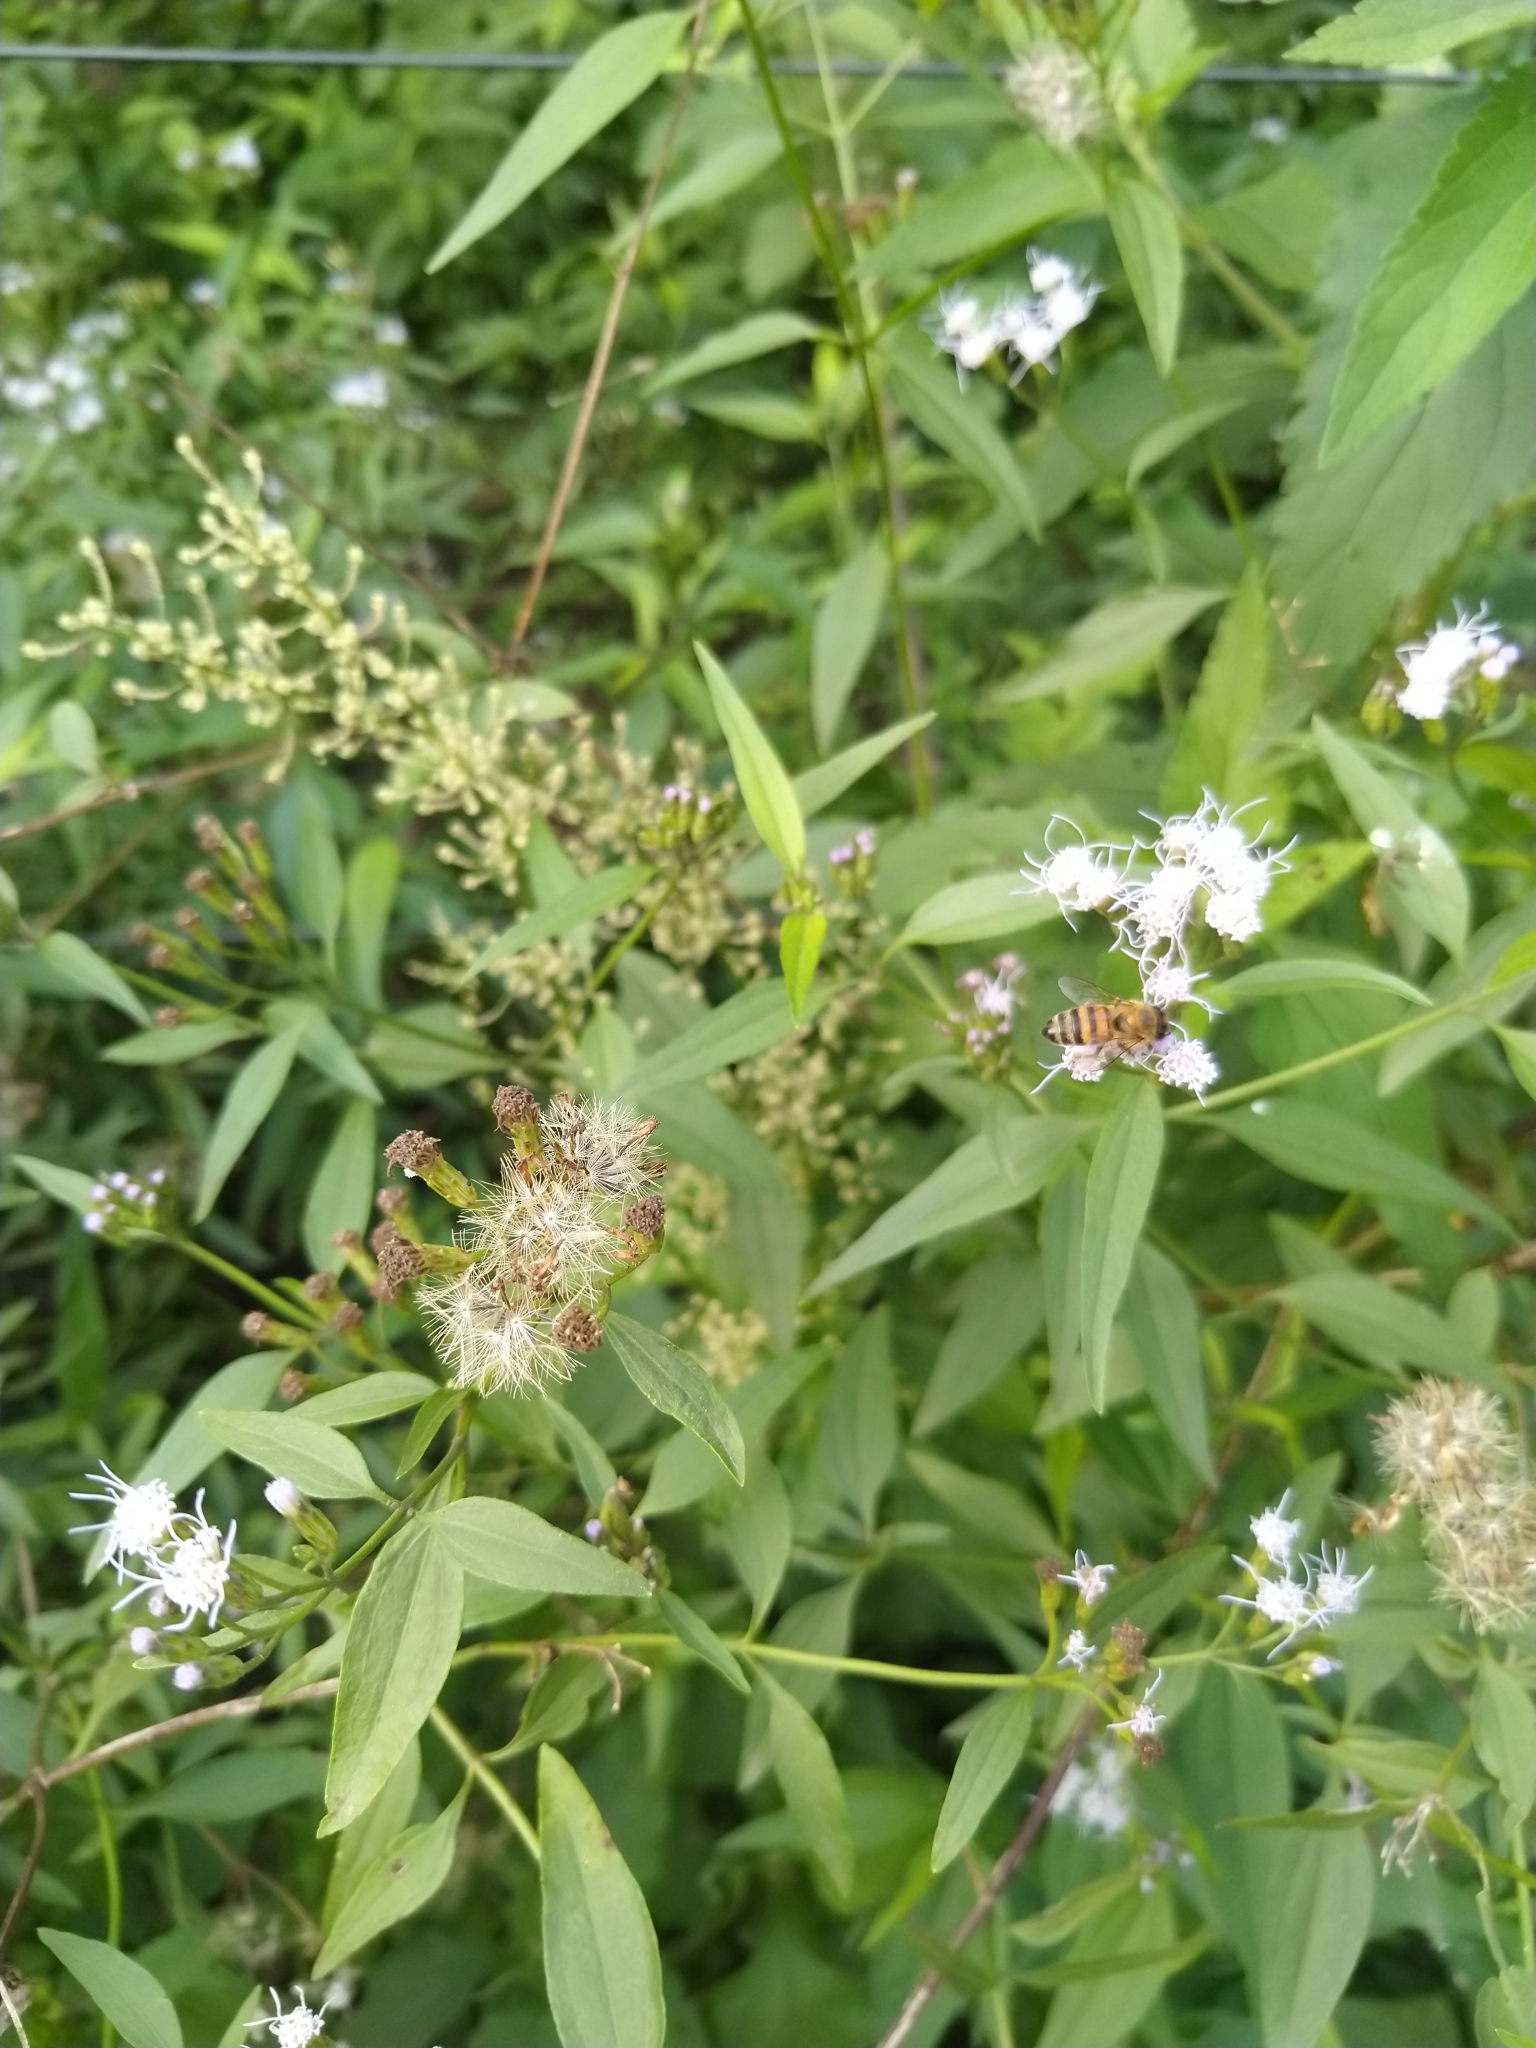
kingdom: Plantae
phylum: Tracheophyta
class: Magnoliopsida
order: Asterales
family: Asteraceae
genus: Chromolaena
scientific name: Chromolaena christieana
